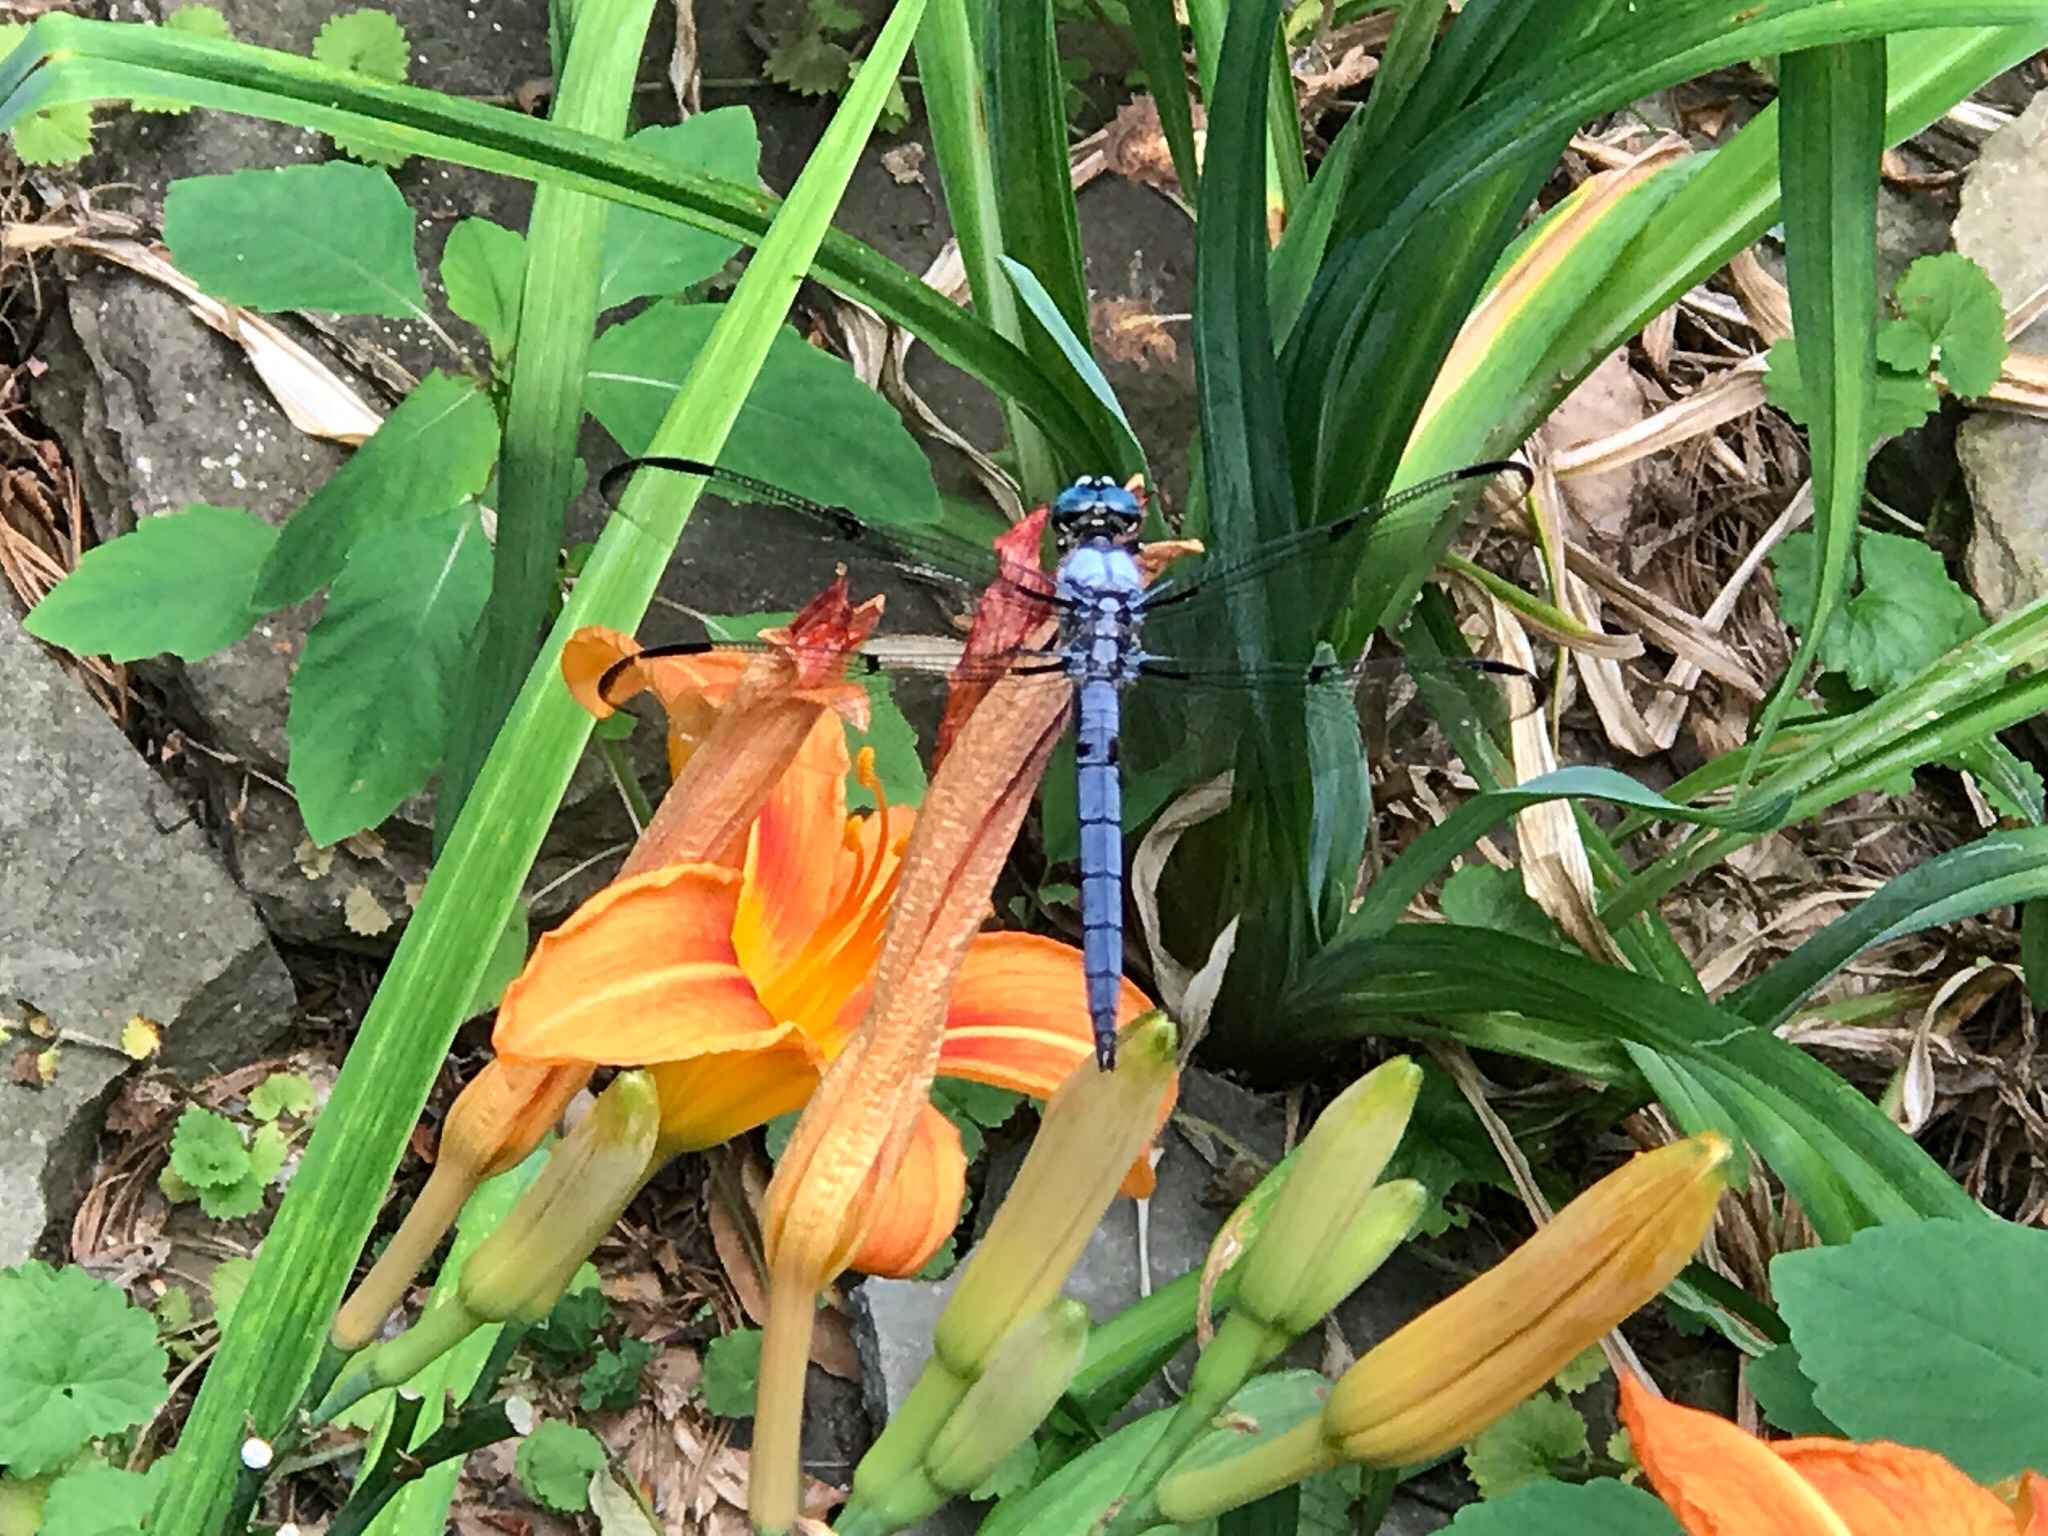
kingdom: Animalia
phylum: Arthropoda
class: Insecta
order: Odonata
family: Libellulidae
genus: Libellula
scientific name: Libellula vibrans
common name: Great blue skimmer
